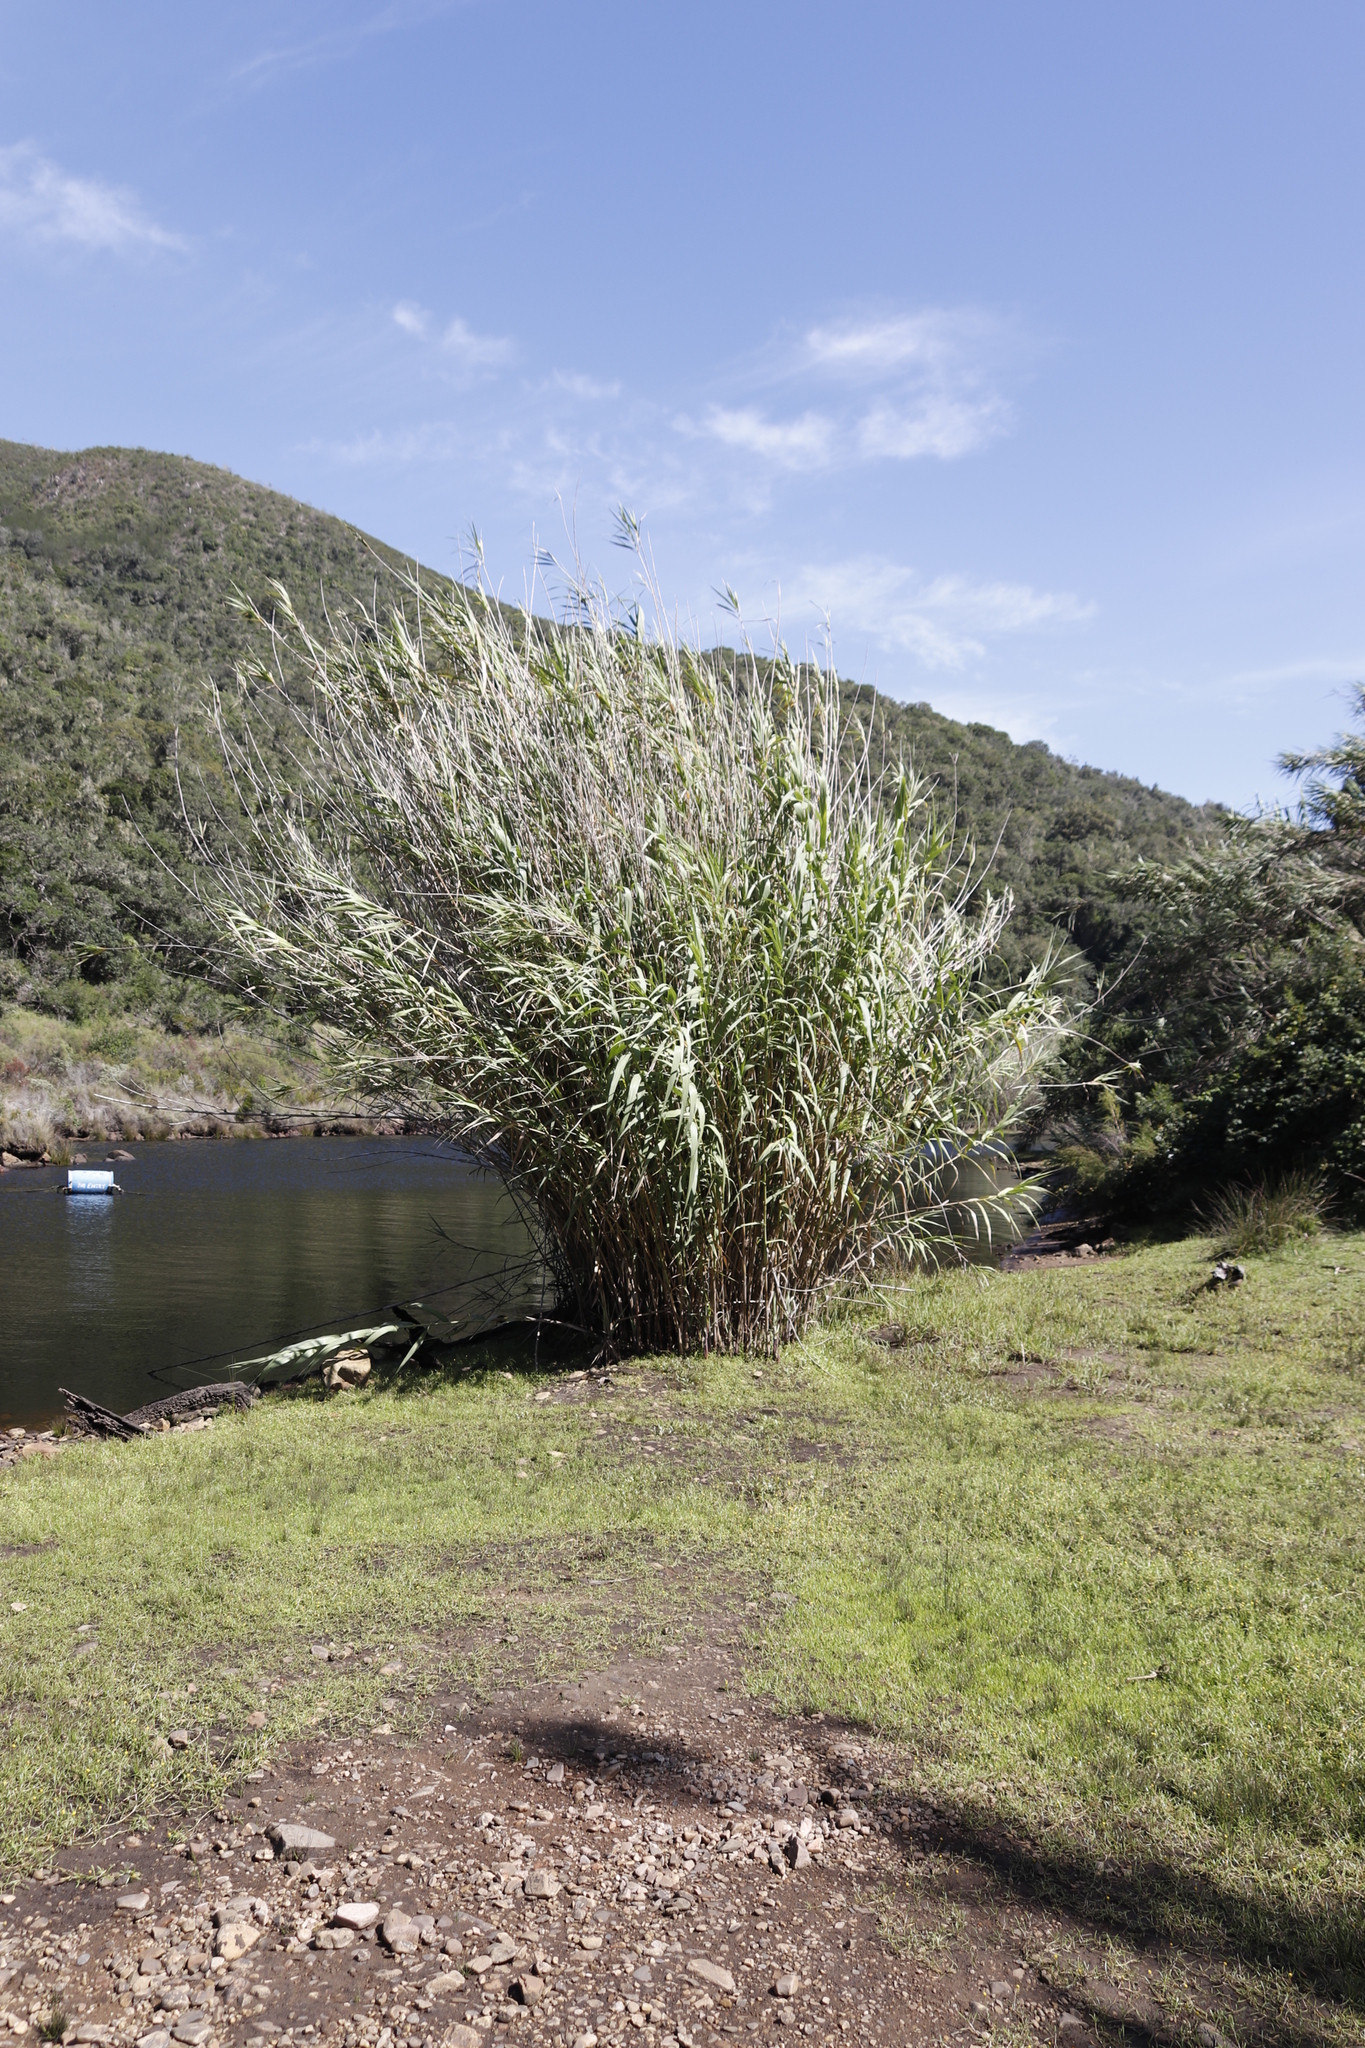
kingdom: Plantae
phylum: Tracheophyta
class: Liliopsida
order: Poales
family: Poaceae
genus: Arundo
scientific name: Arundo donax
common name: Giant reed
